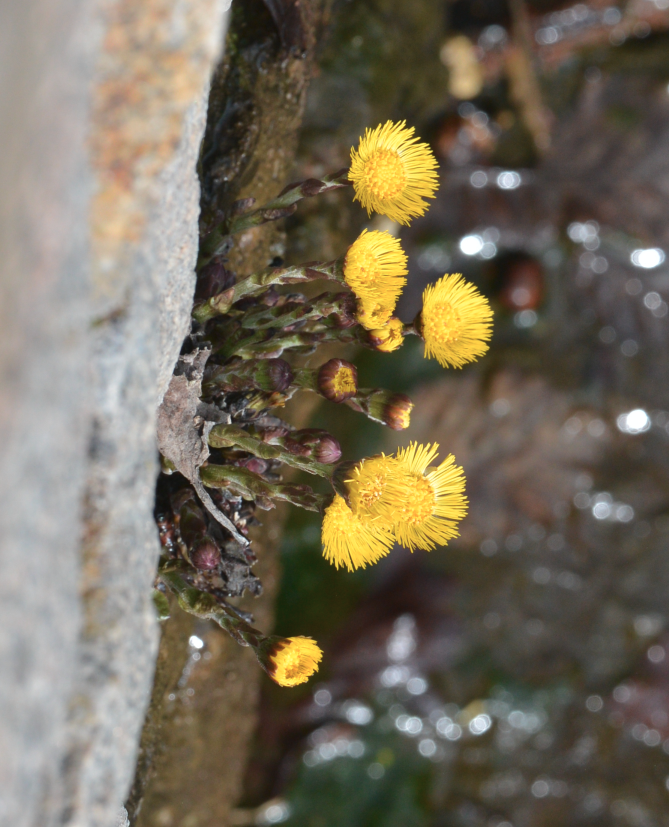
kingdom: Plantae
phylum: Tracheophyta
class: Magnoliopsida
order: Asterales
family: Asteraceae
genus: Tussilago
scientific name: Tussilago farfara
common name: Coltsfoot
